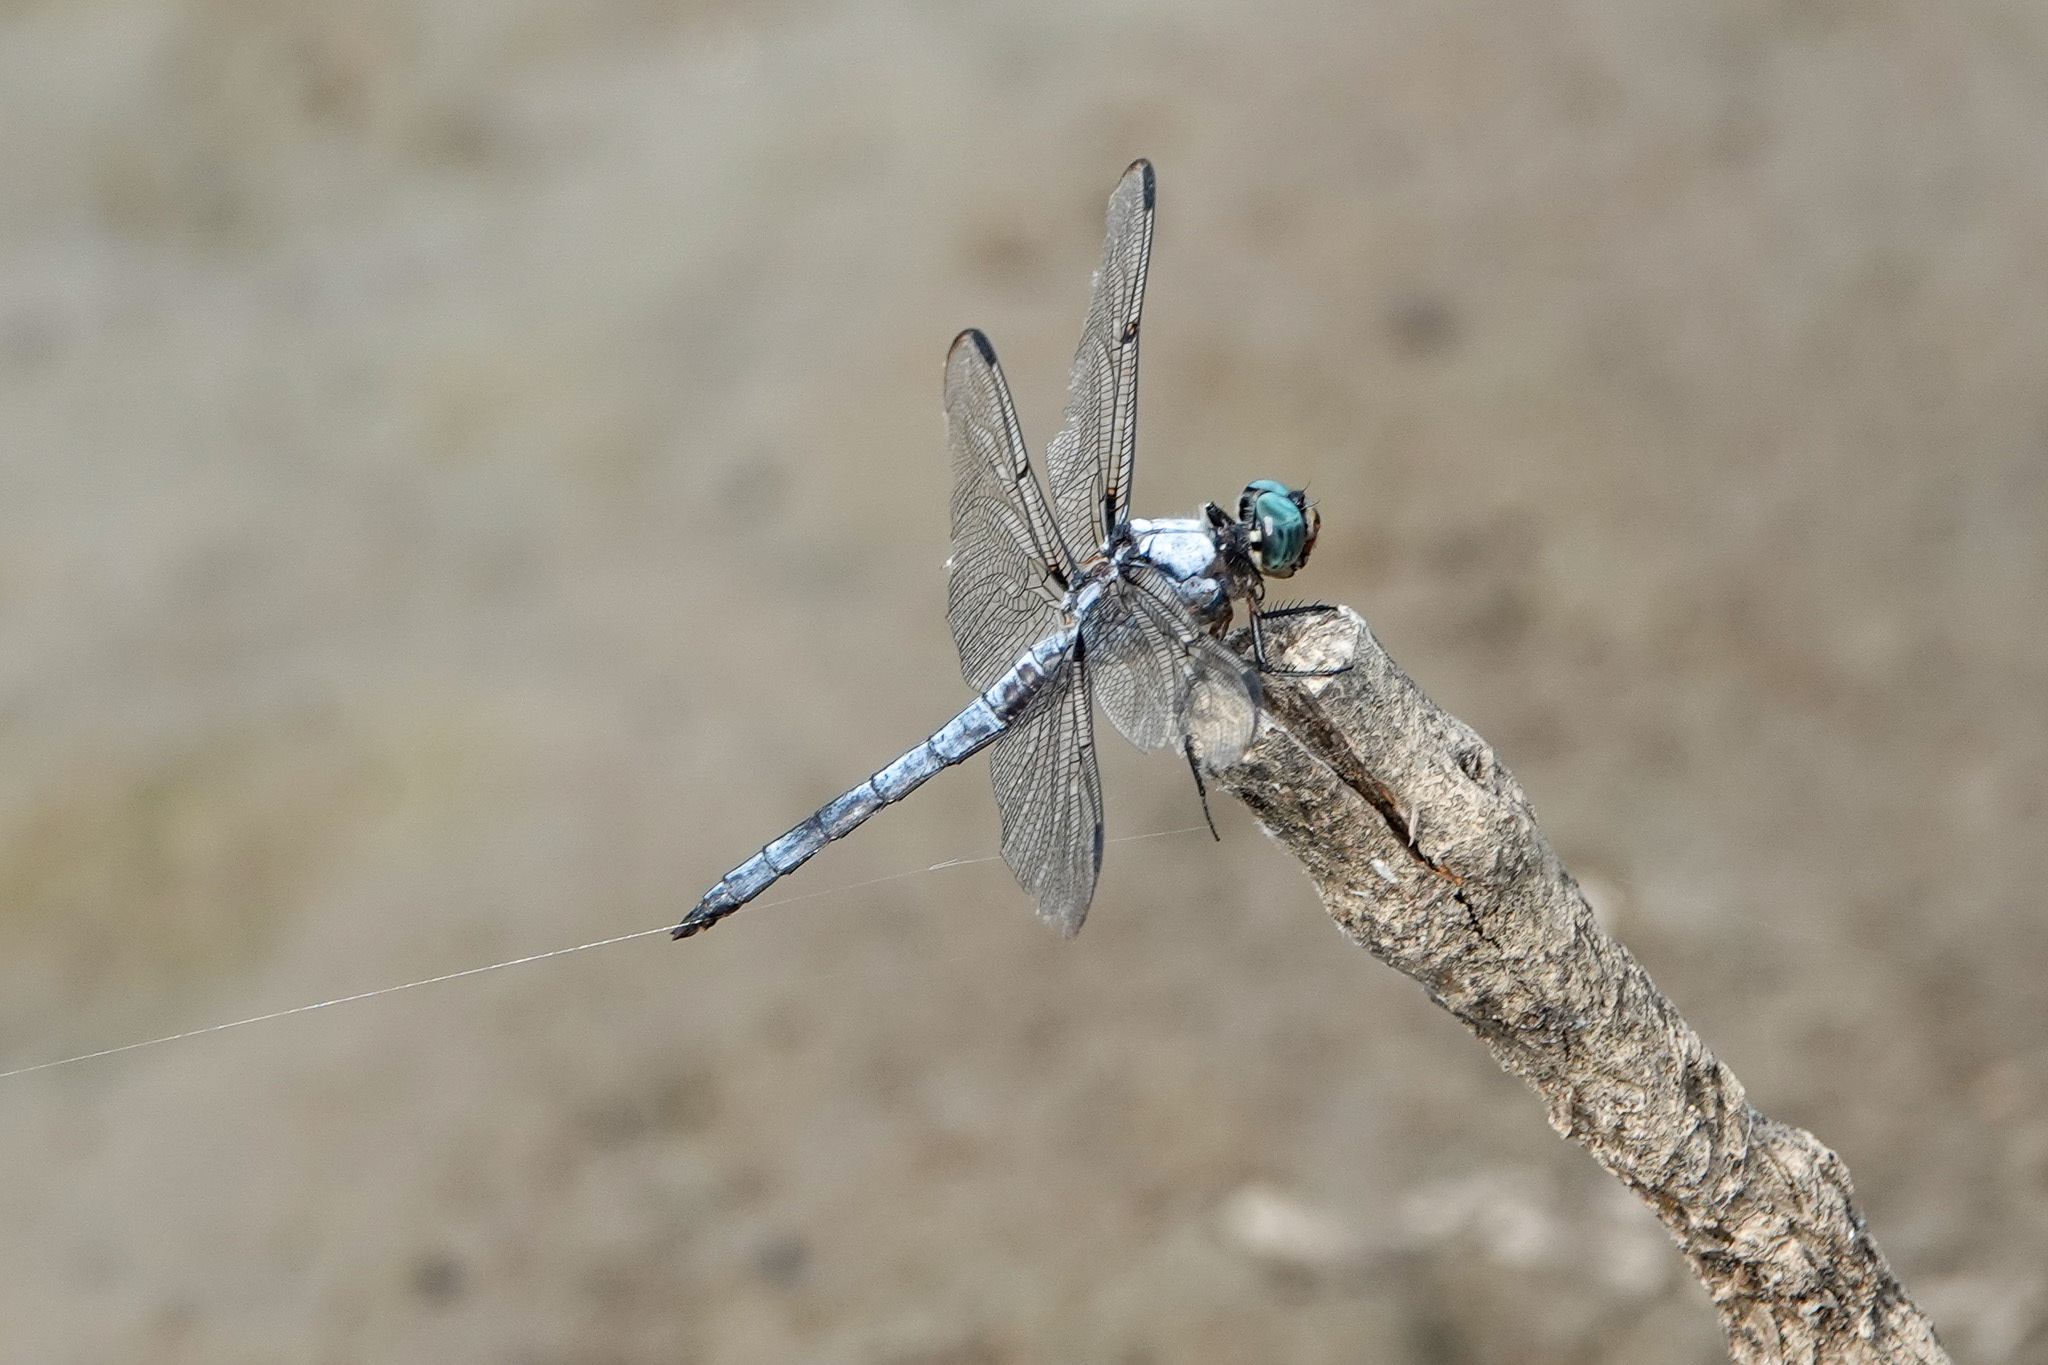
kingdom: Animalia
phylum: Arthropoda
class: Insecta
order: Odonata
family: Libellulidae
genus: Libellula
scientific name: Libellula vibrans
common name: Great blue skimmer
